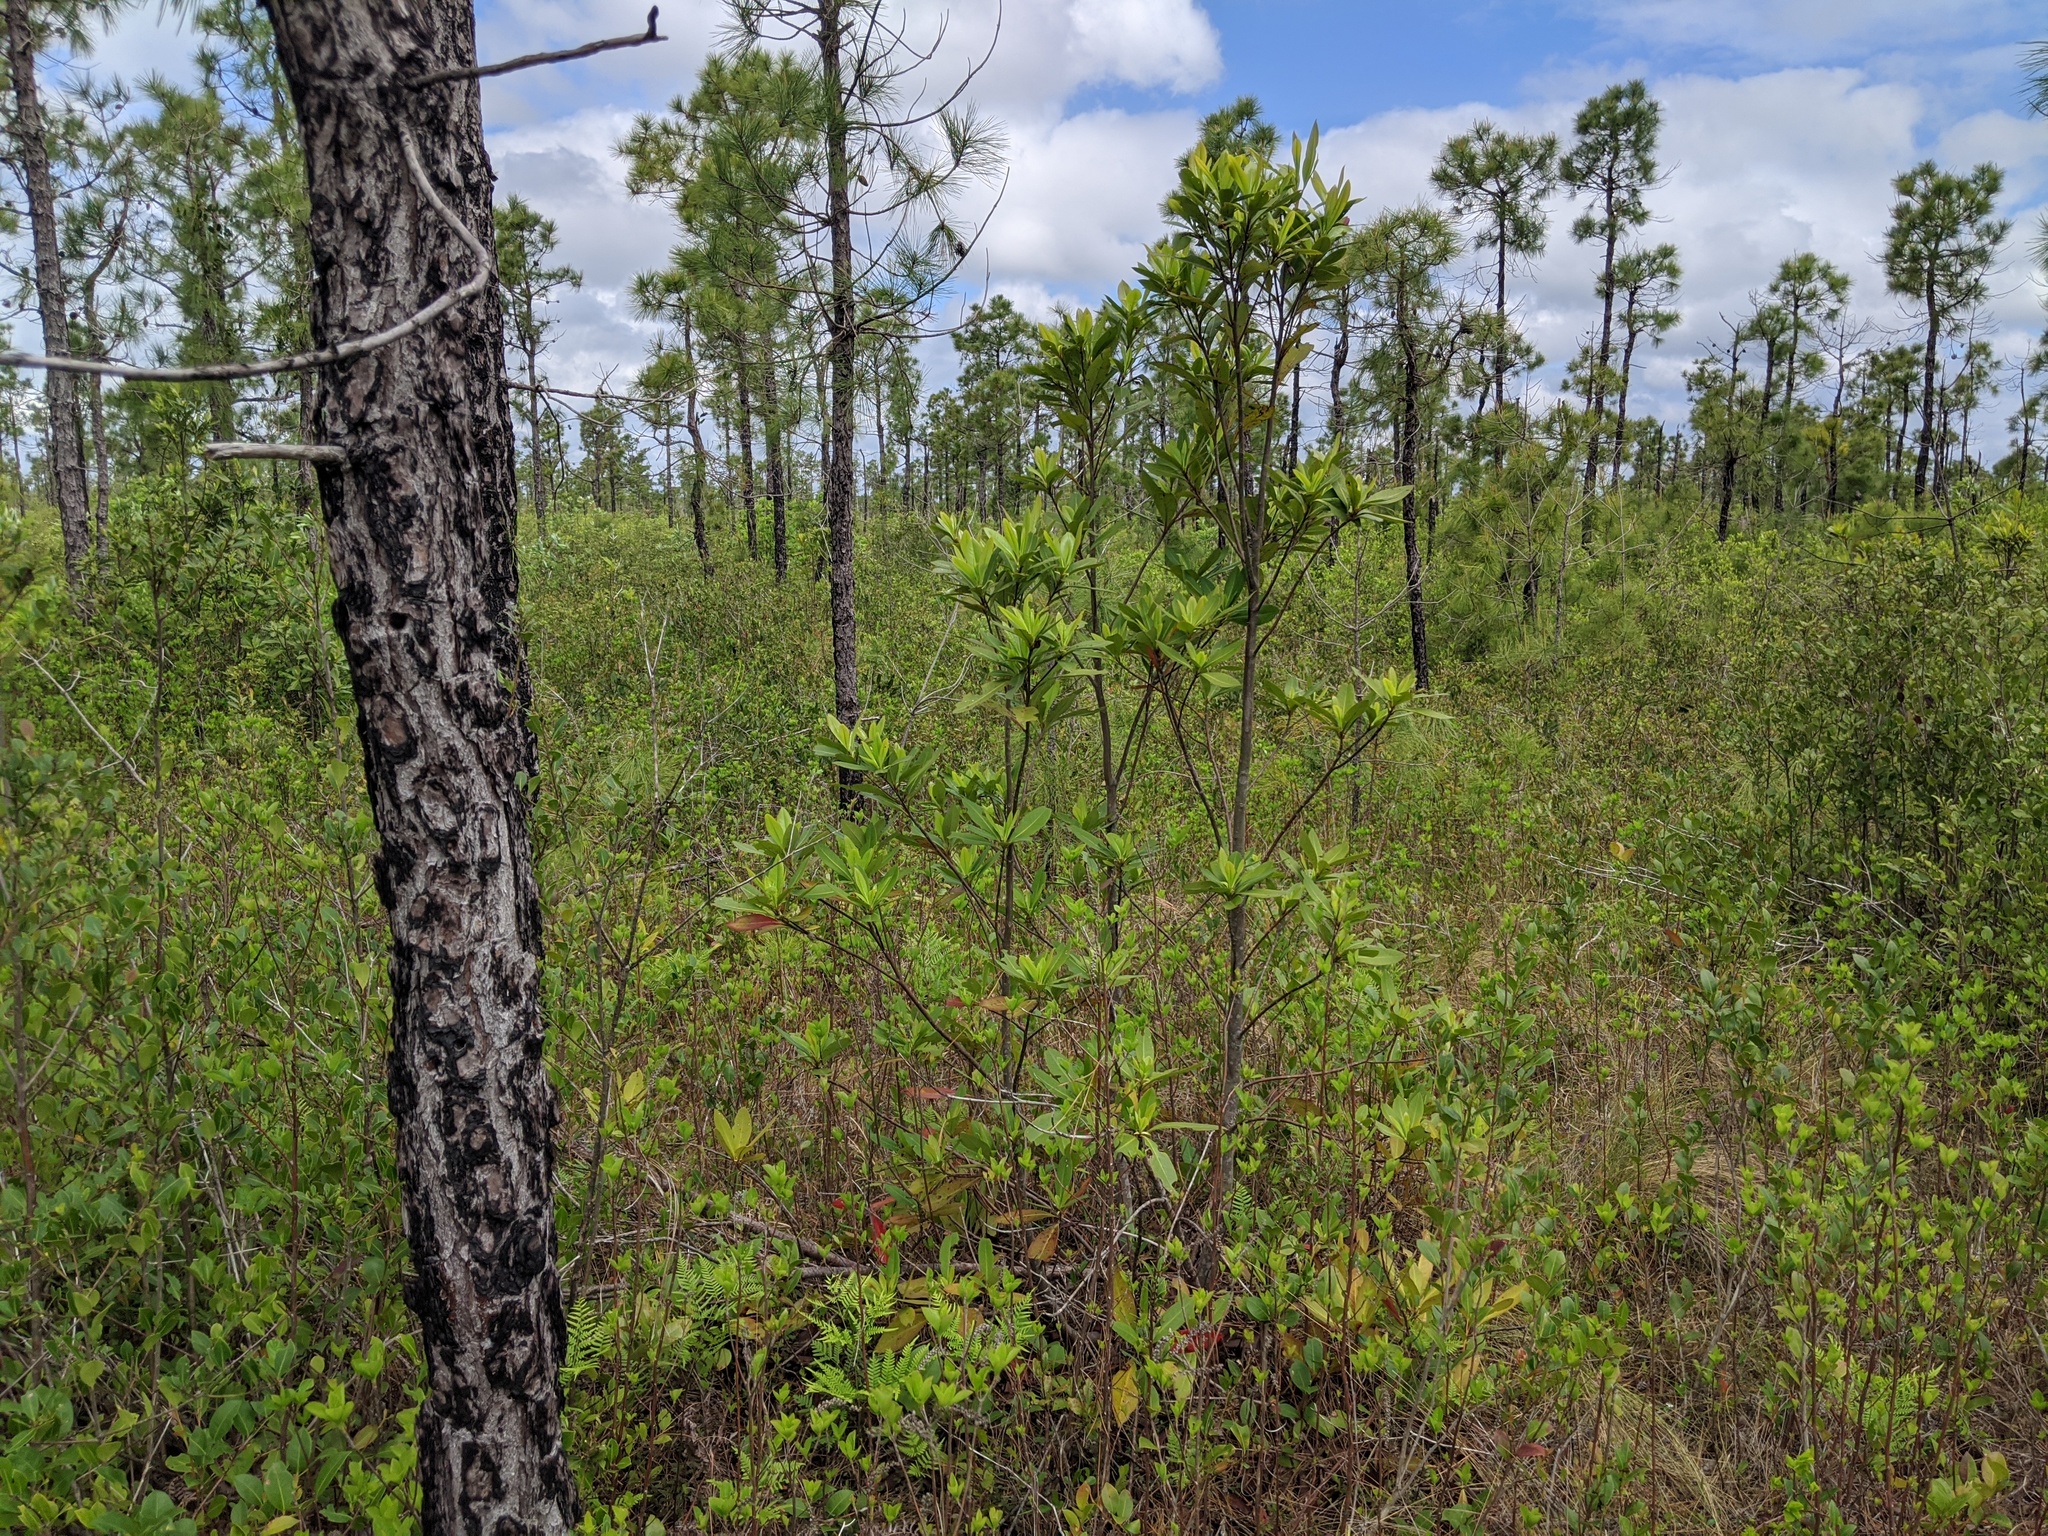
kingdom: Plantae
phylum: Tracheophyta
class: Magnoliopsida
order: Ericales
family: Theaceae
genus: Gordonia
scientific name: Gordonia lasianthus
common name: Loblolly bay
